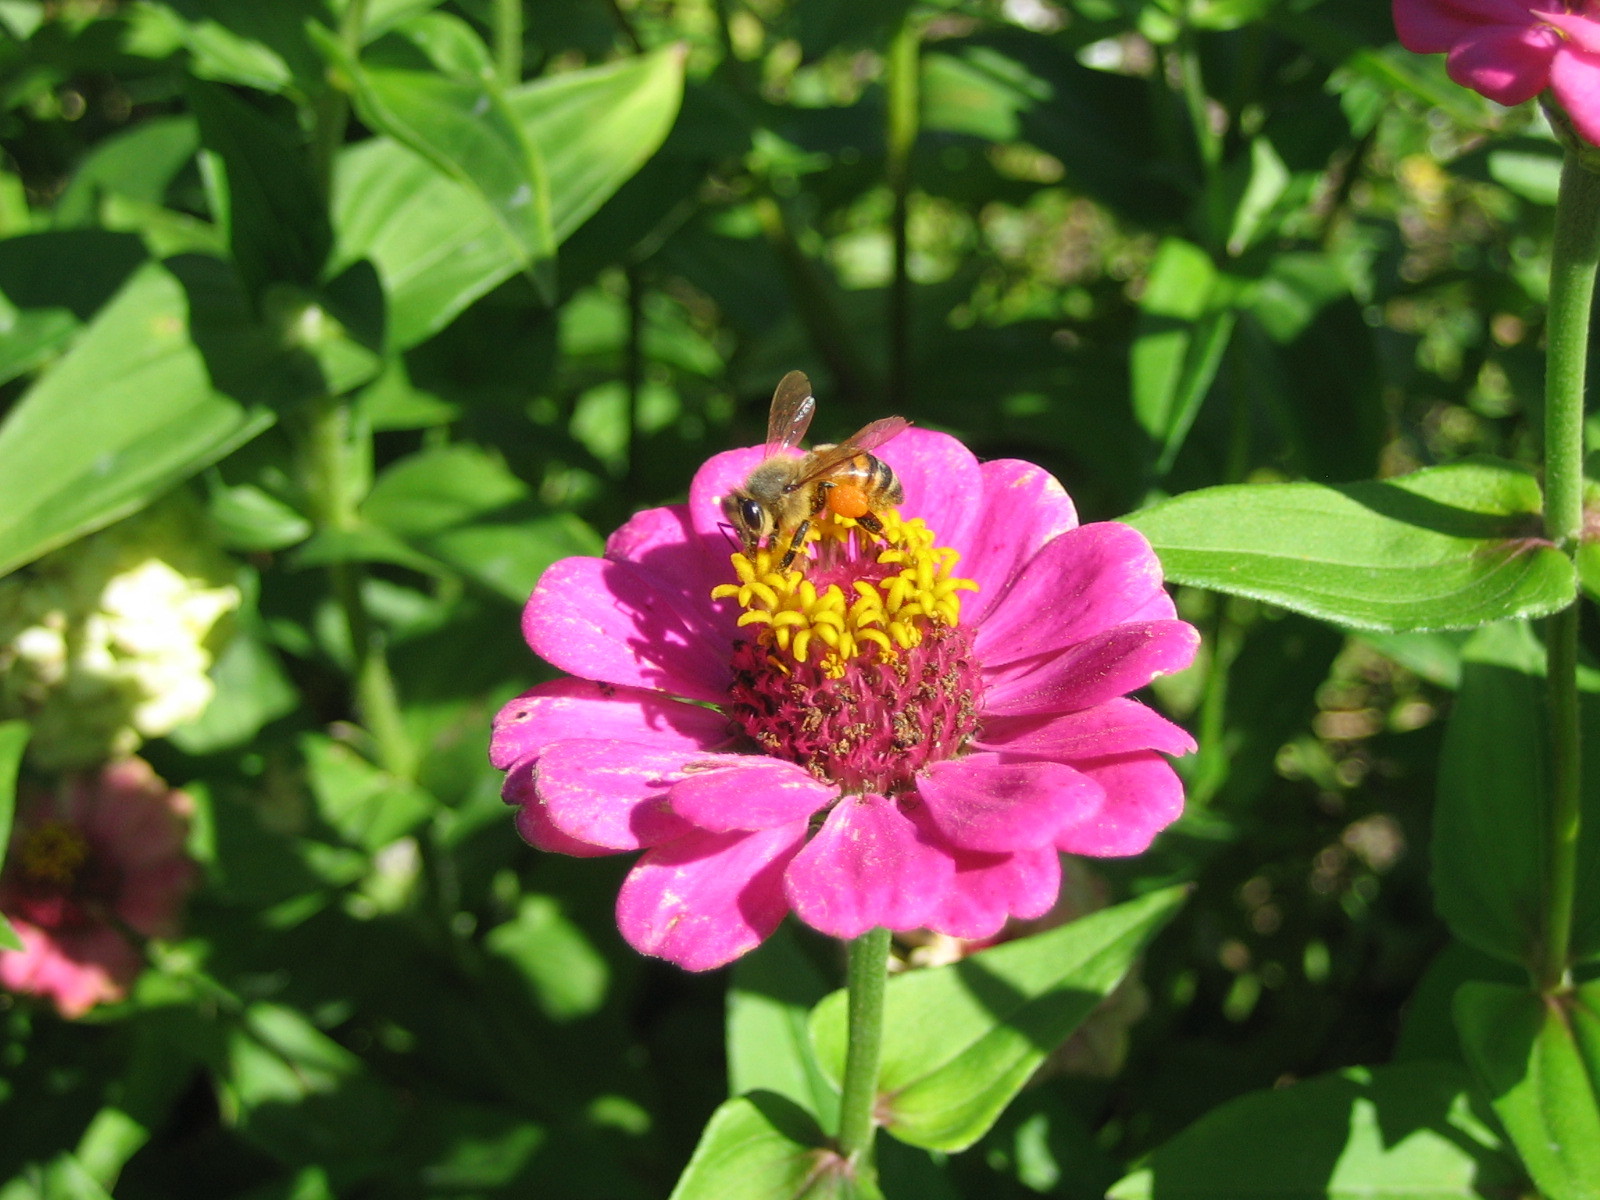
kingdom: Animalia
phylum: Arthropoda
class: Insecta
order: Hymenoptera
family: Apidae
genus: Apis
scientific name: Apis mellifera
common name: Honey bee
